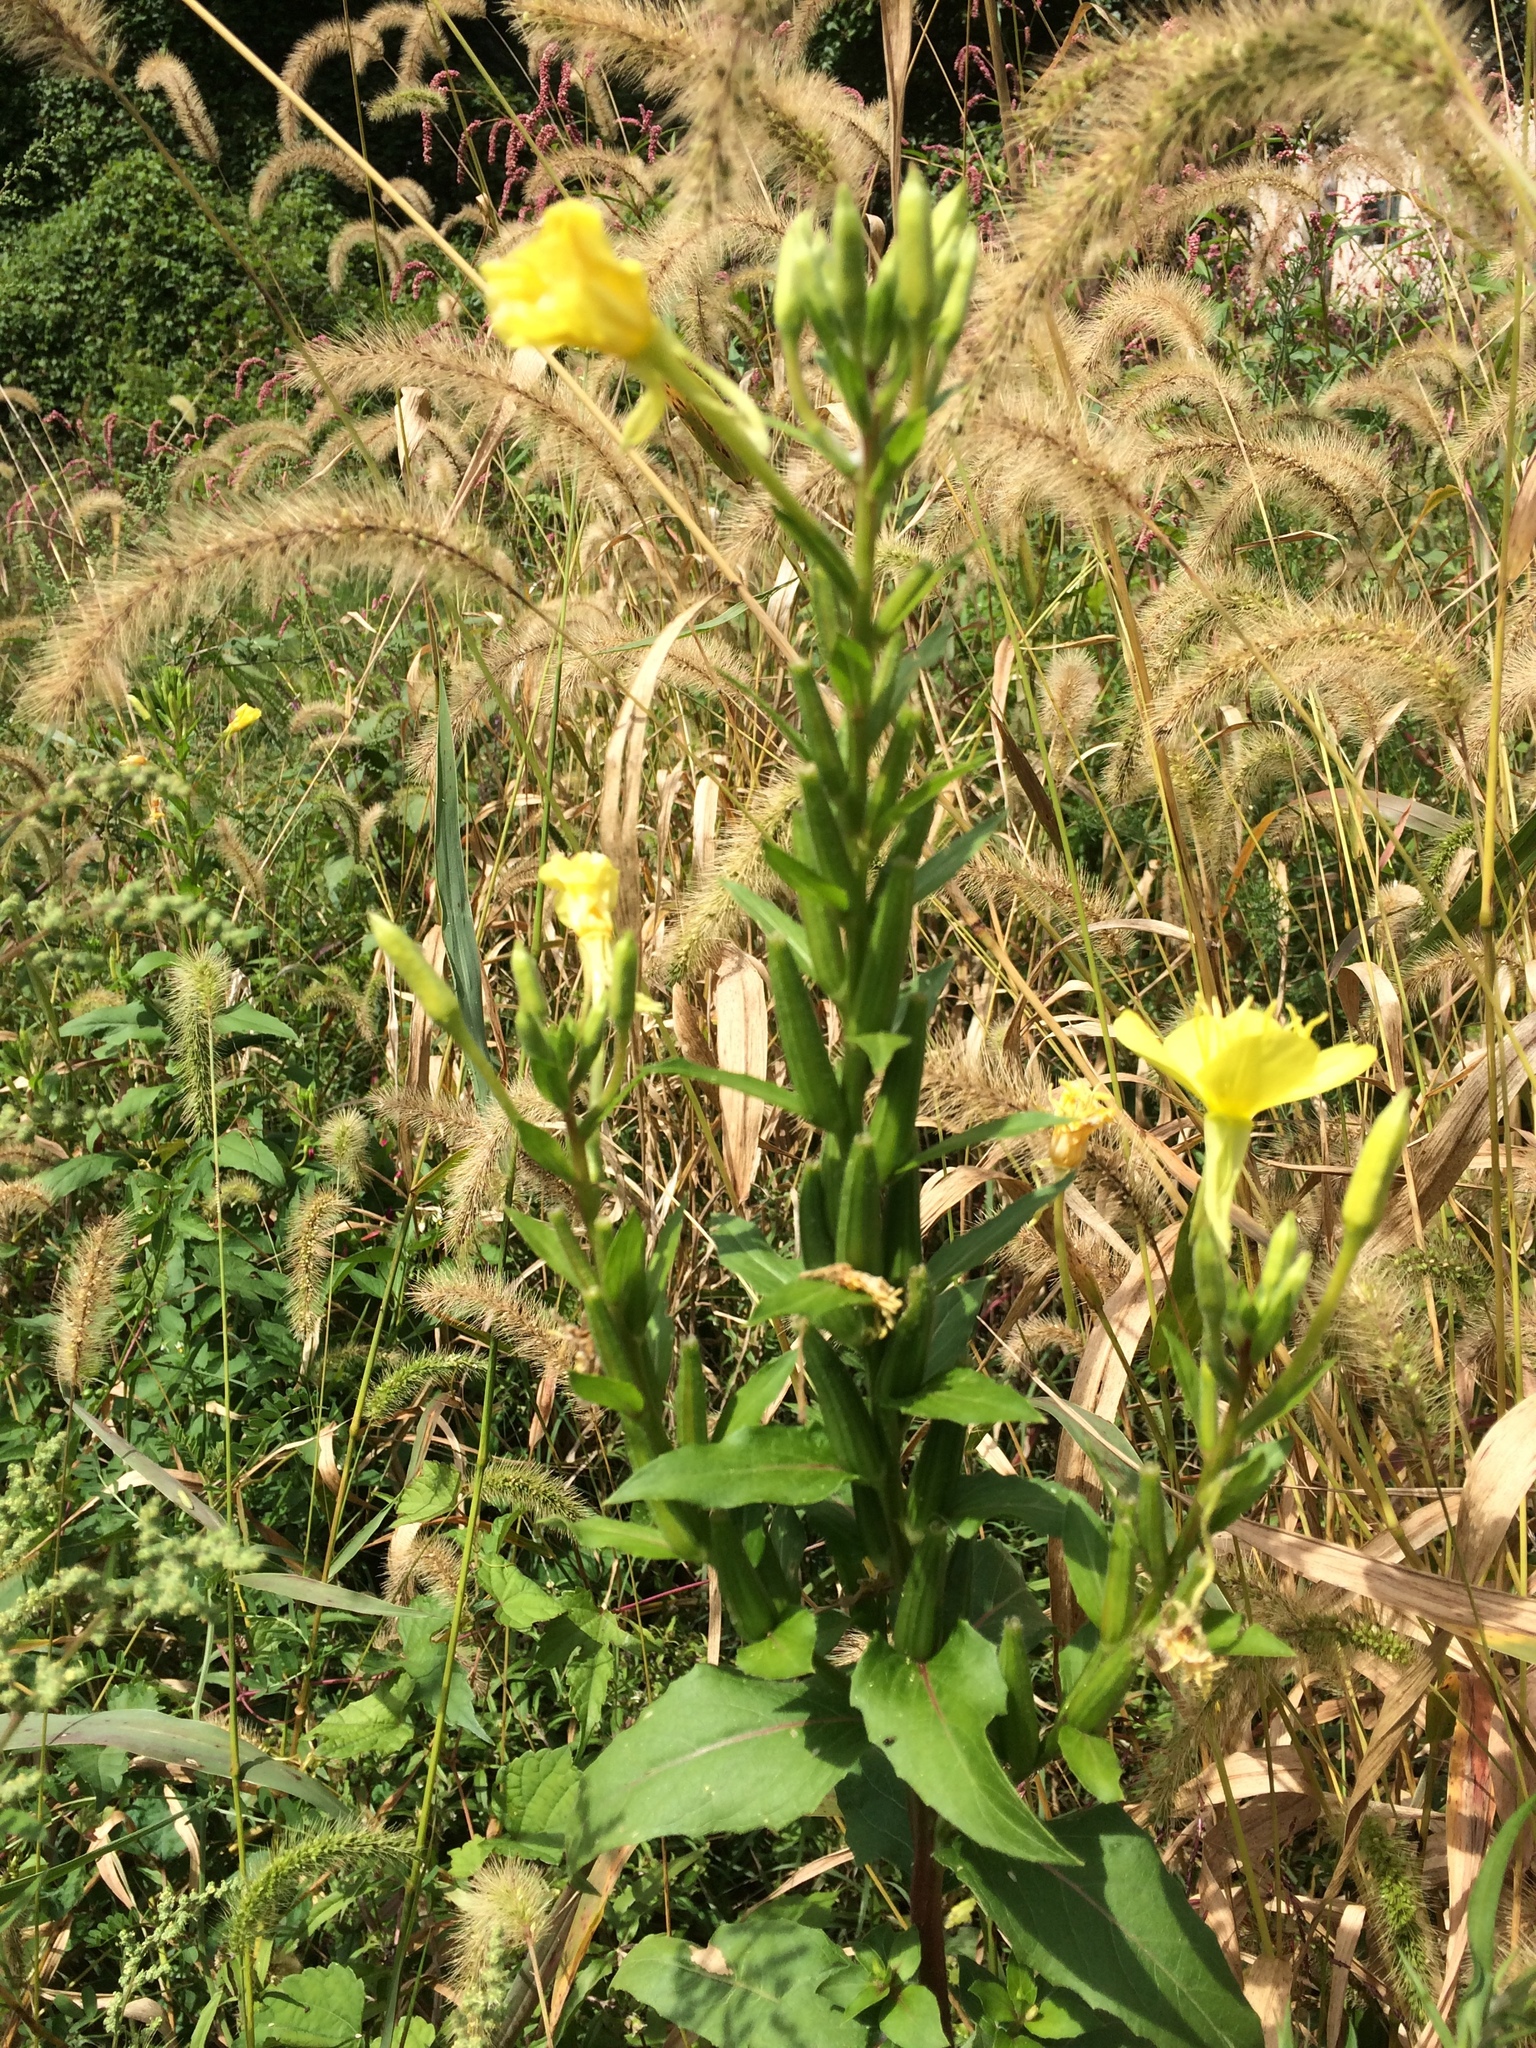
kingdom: Plantae
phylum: Tracheophyta
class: Magnoliopsida
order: Myrtales
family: Onagraceae
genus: Oenothera
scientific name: Oenothera biennis
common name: Common evening-primrose
